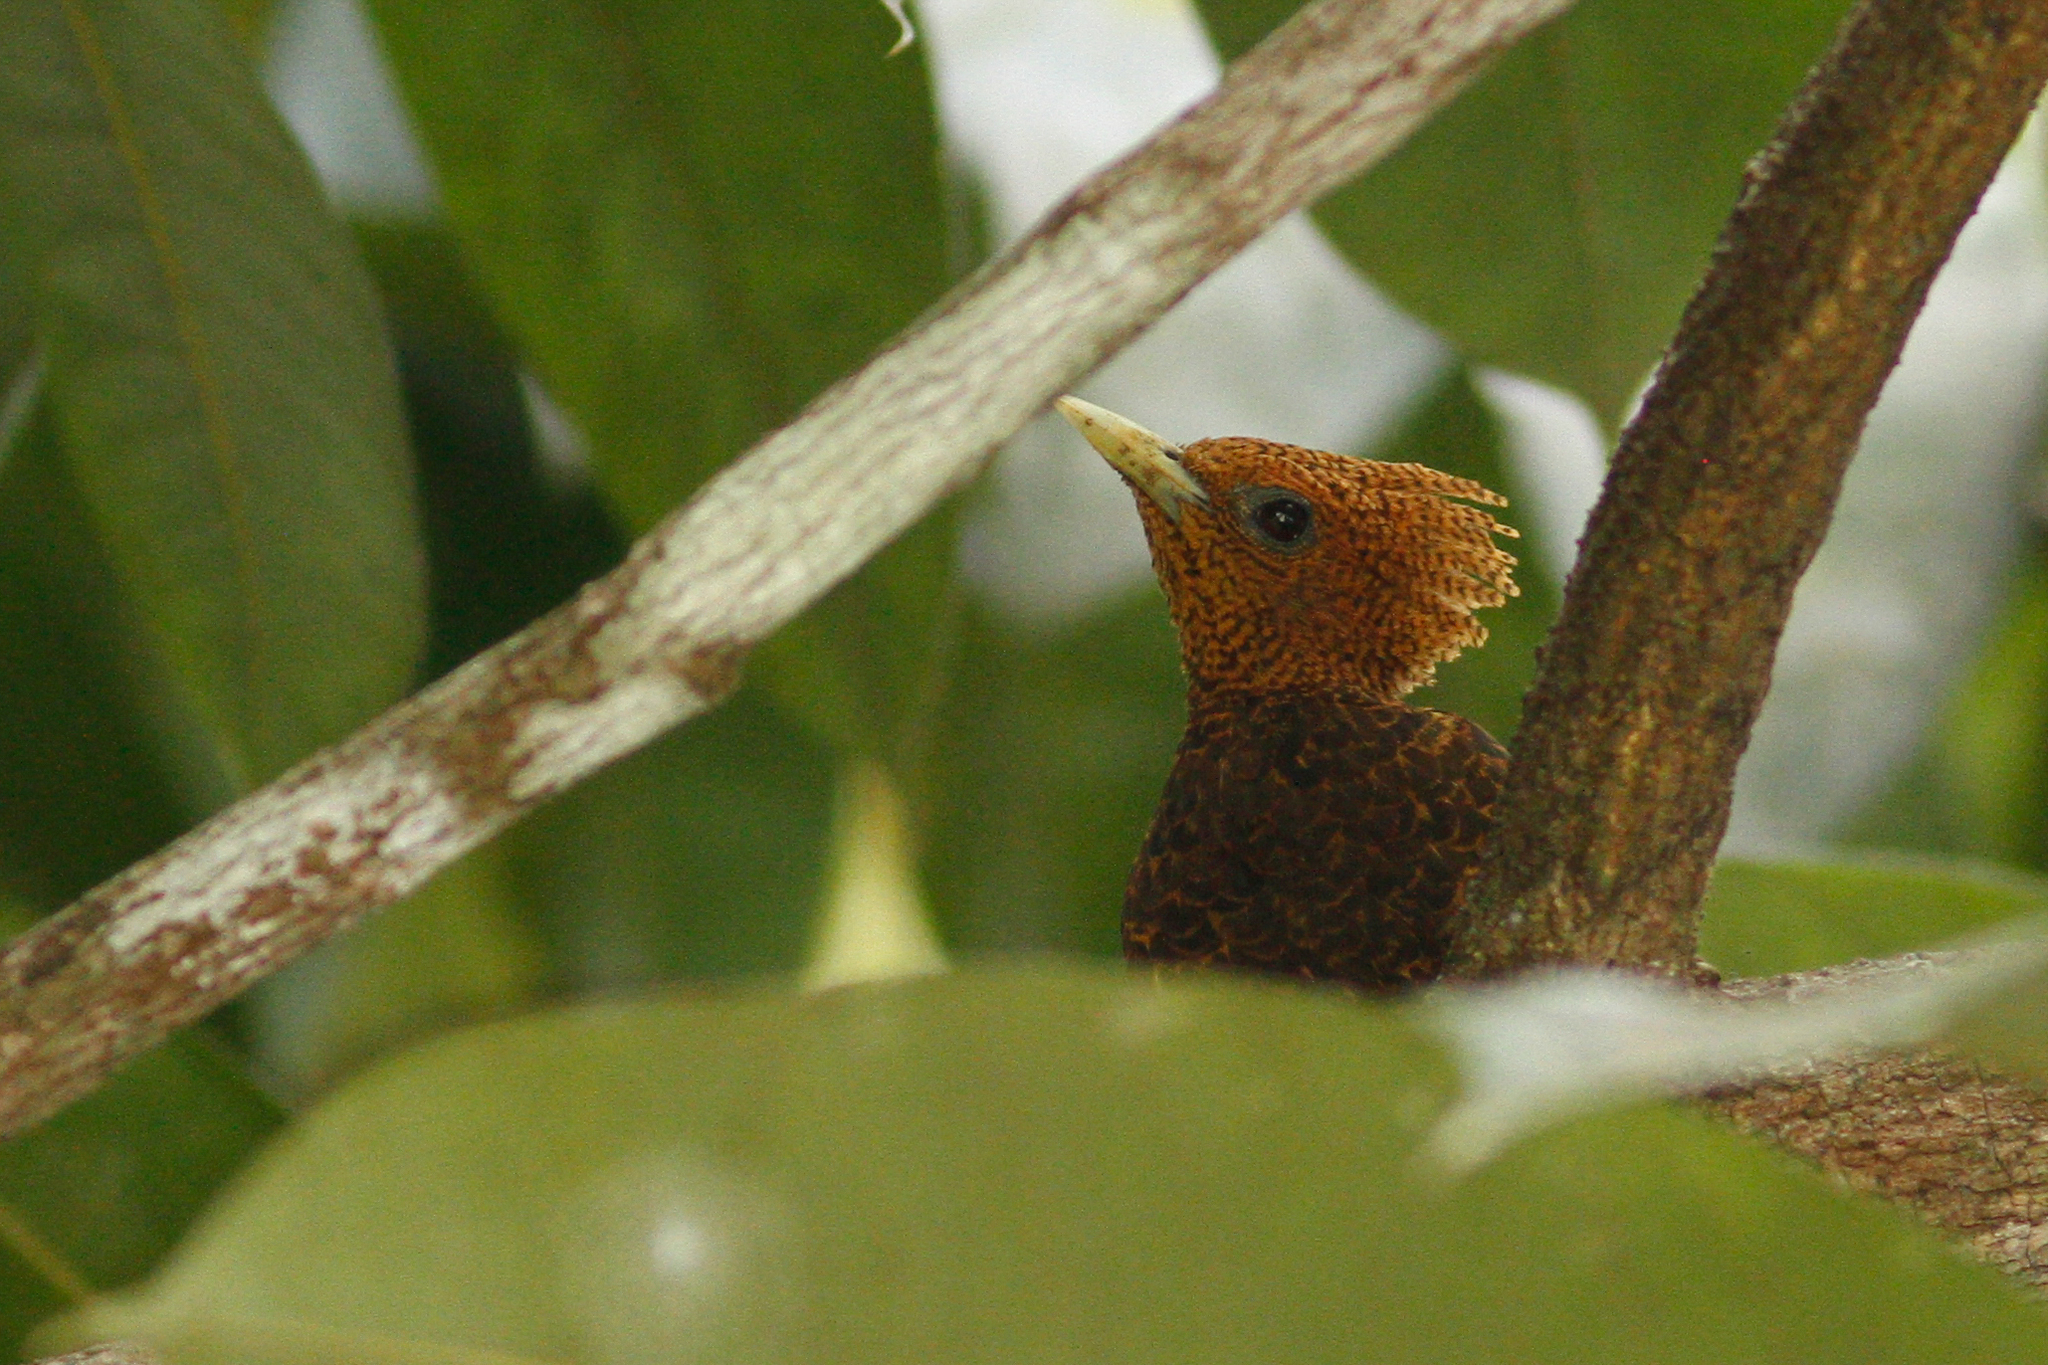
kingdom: Animalia
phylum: Chordata
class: Aves
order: Piciformes
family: Picidae
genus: Celeus
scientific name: Celeus undatus
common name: Waved woodpecker
